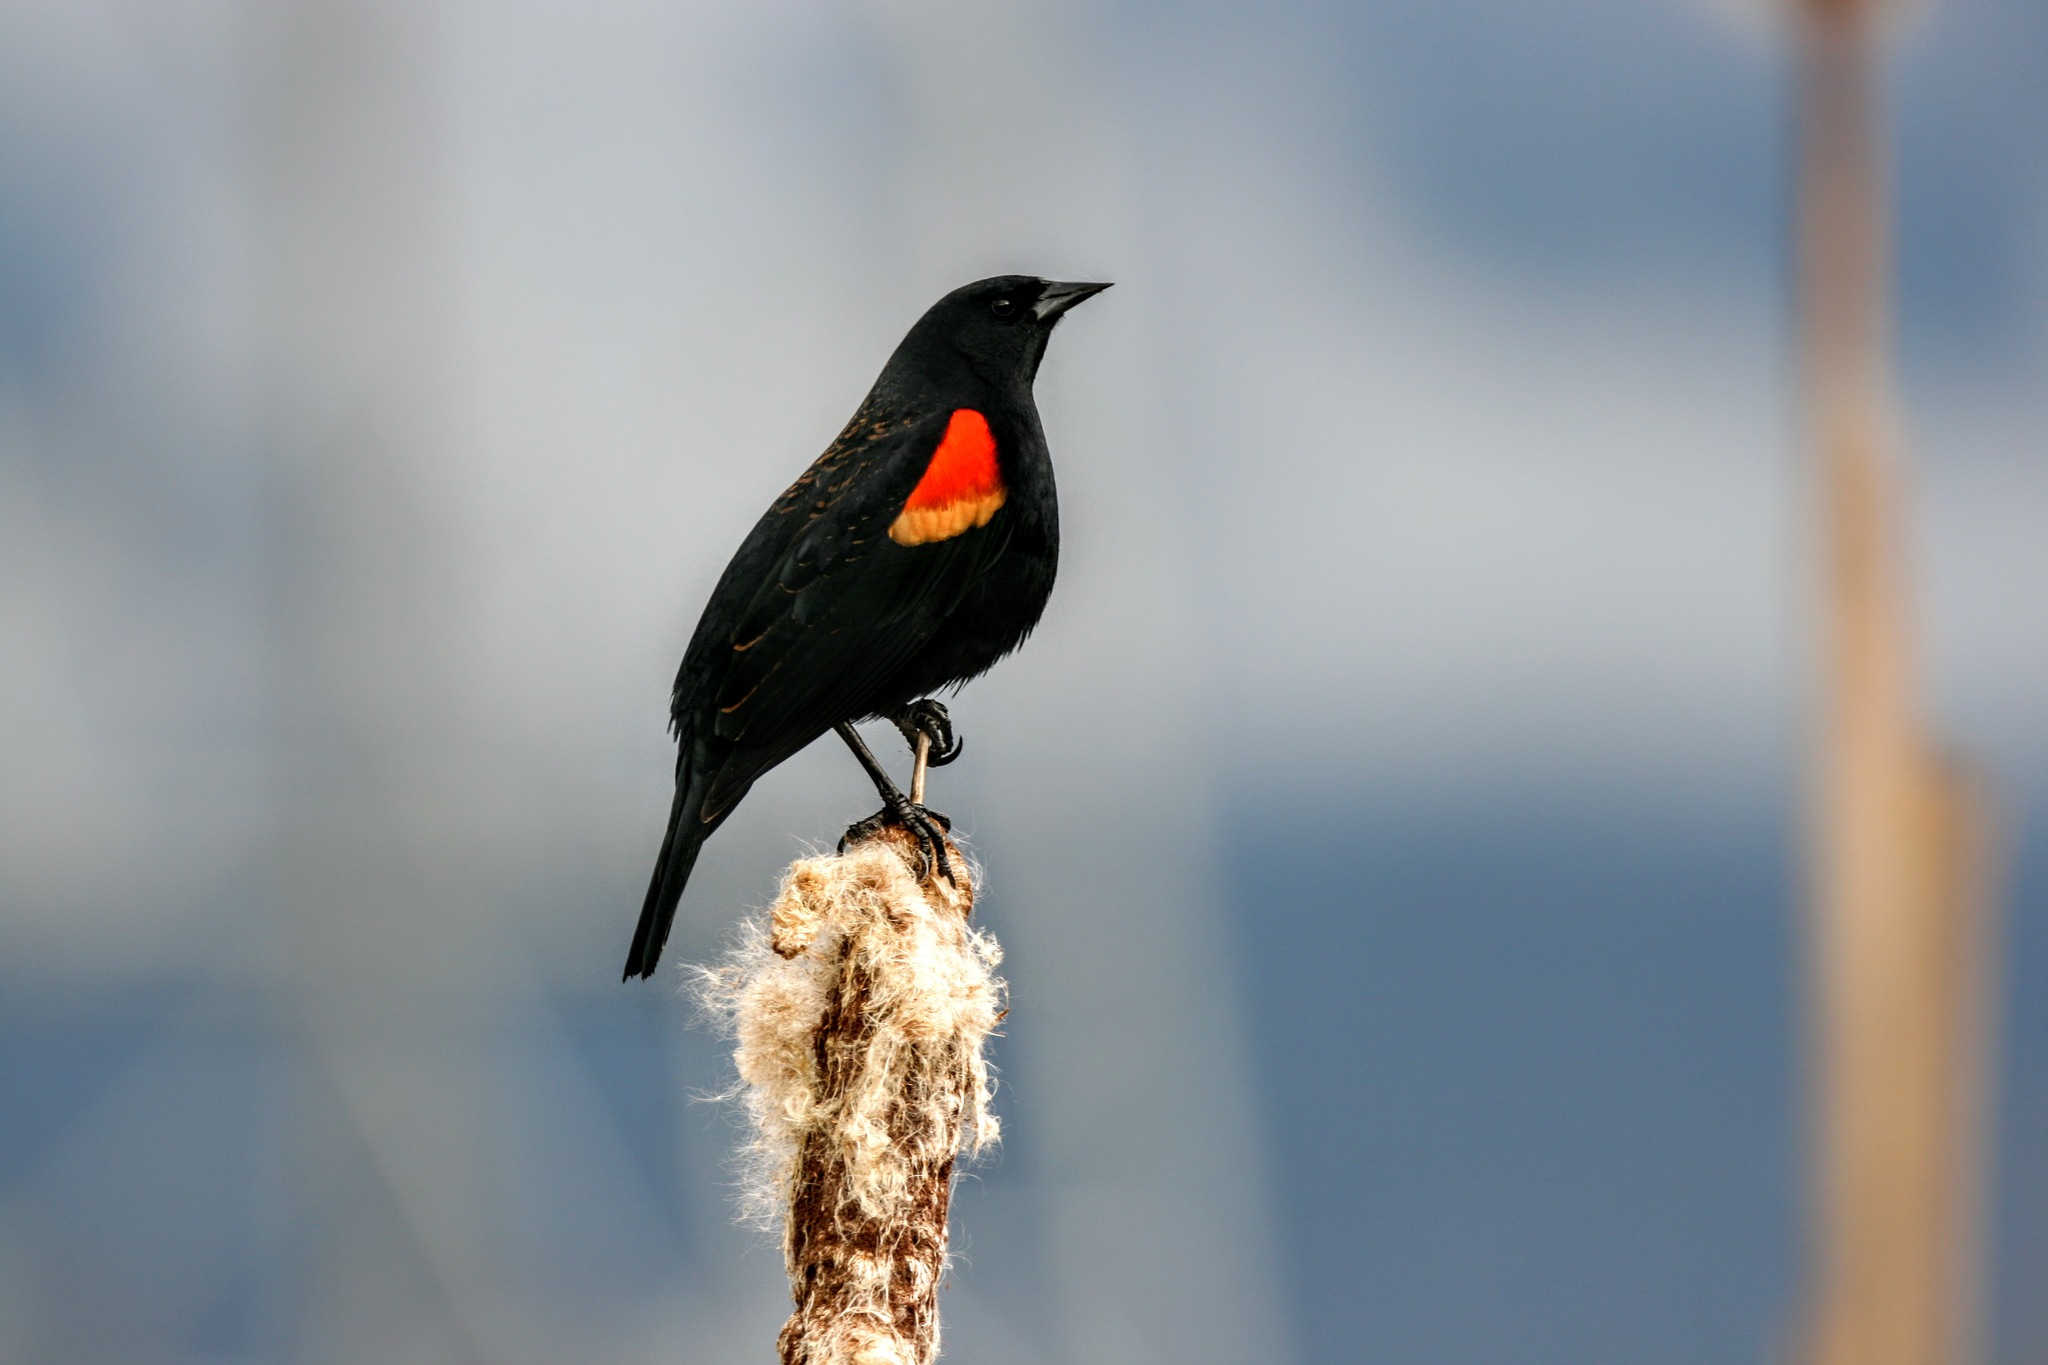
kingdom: Animalia
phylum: Chordata
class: Aves
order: Passeriformes
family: Icteridae
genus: Agelaius
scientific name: Agelaius phoeniceus
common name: Red-winged blackbird
